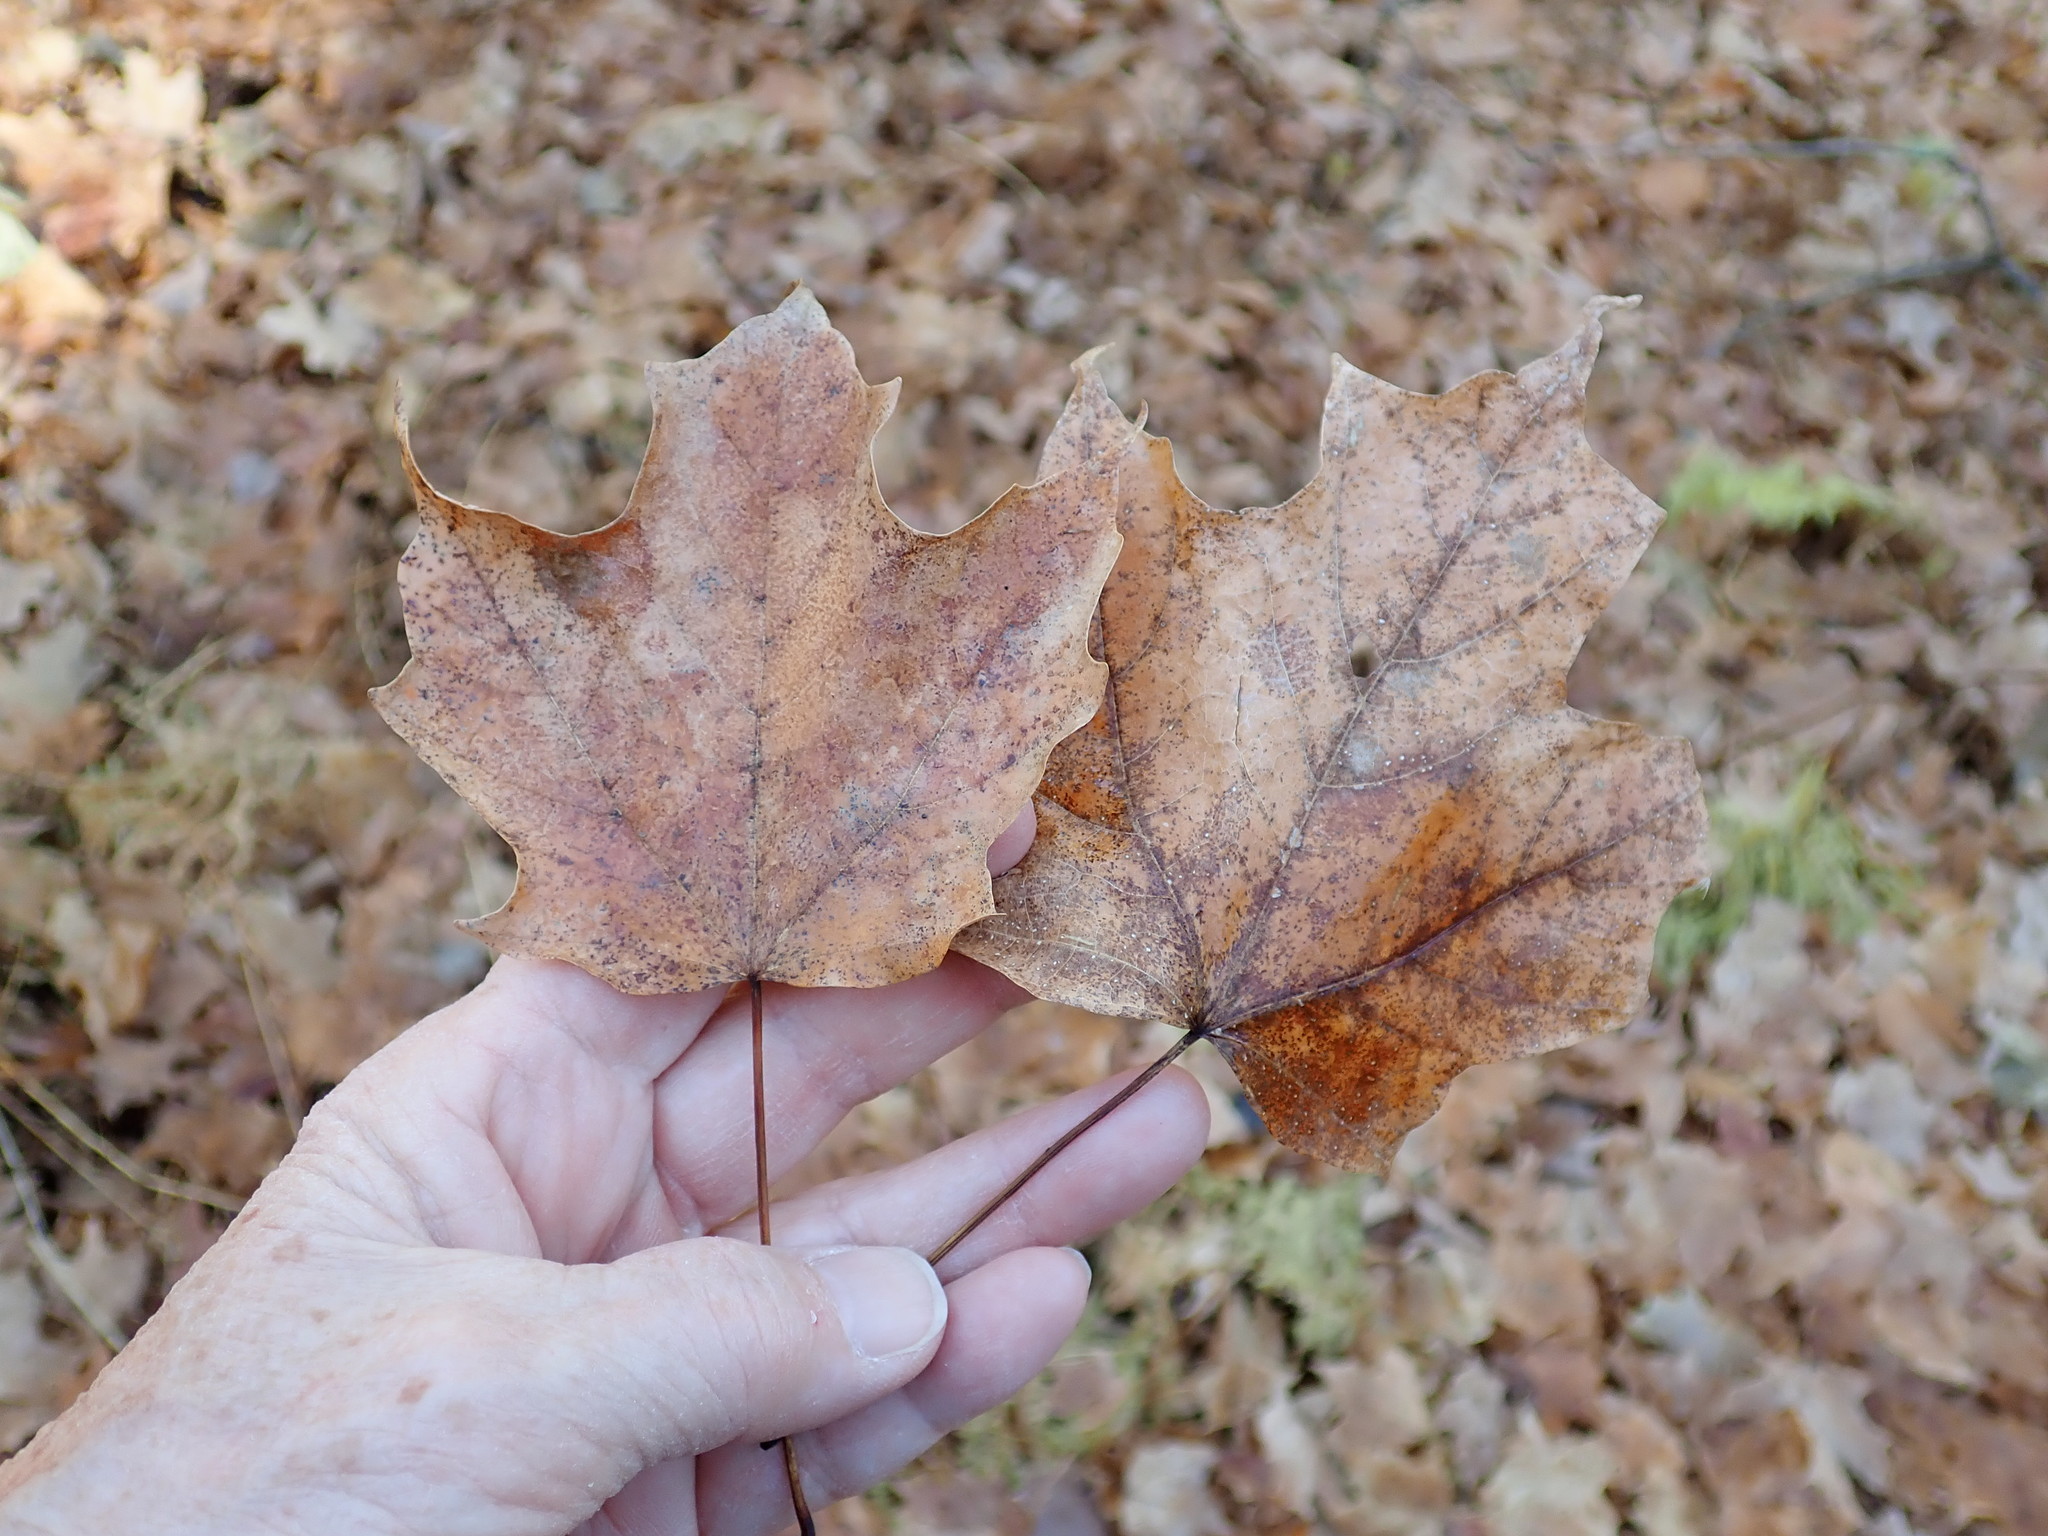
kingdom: Plantae
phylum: Tracheophyta
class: Magnoliopsida
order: Sapindales
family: Sapindaceae
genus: Acer
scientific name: Acer saccharum
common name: Sugar maple
